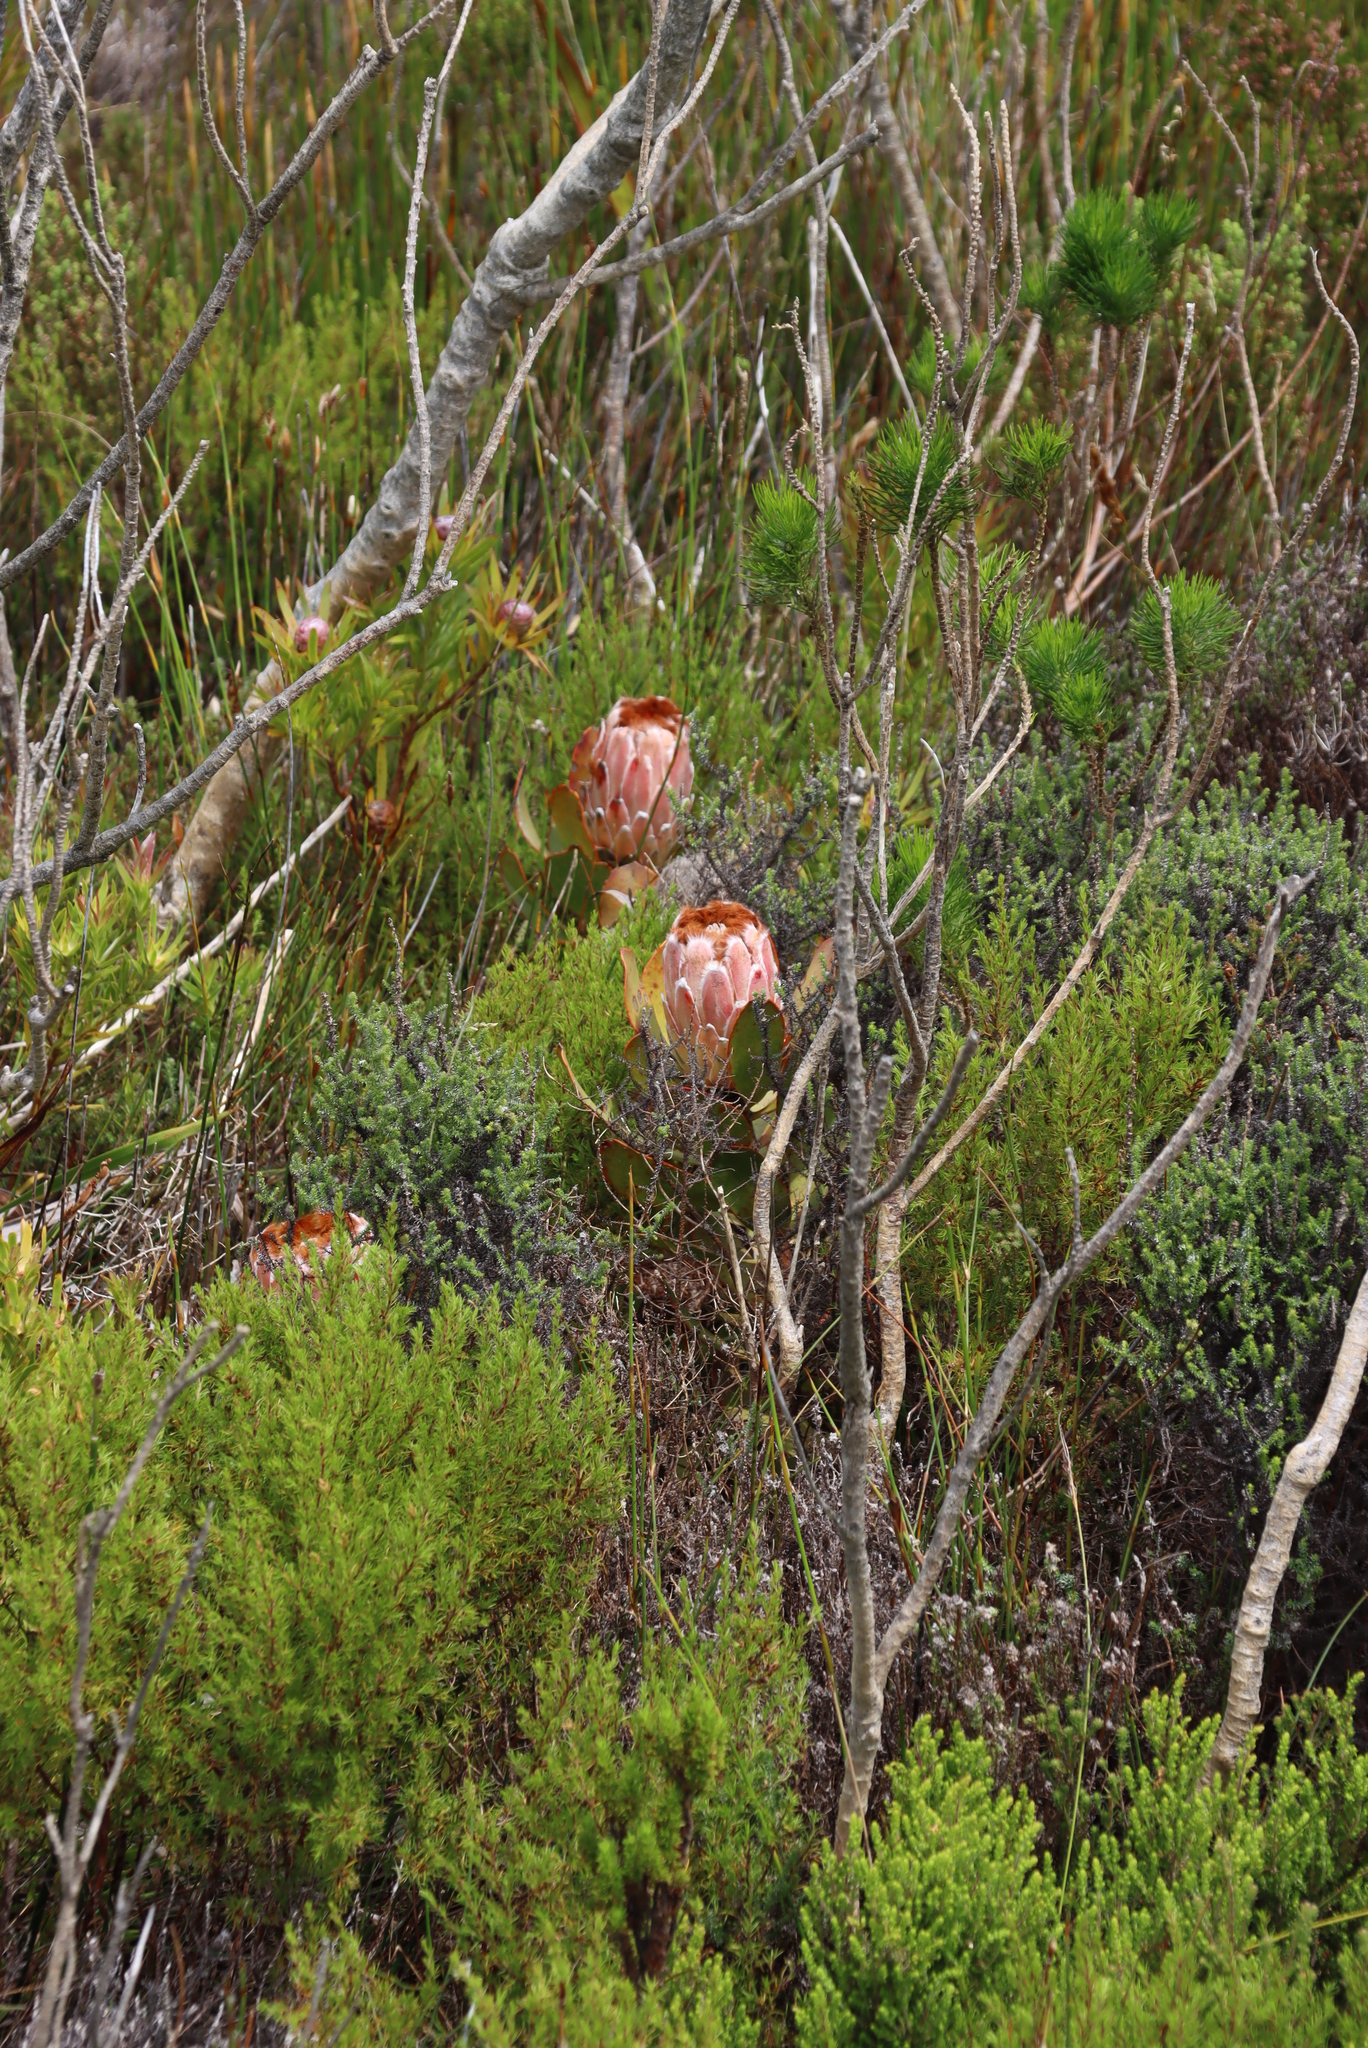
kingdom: Plantae
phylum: Tracheophyta
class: Magnoliopsida
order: Proteales
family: Proteaceae
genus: Protea
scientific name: Protea speciosa
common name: Brown-beard sugarbush
